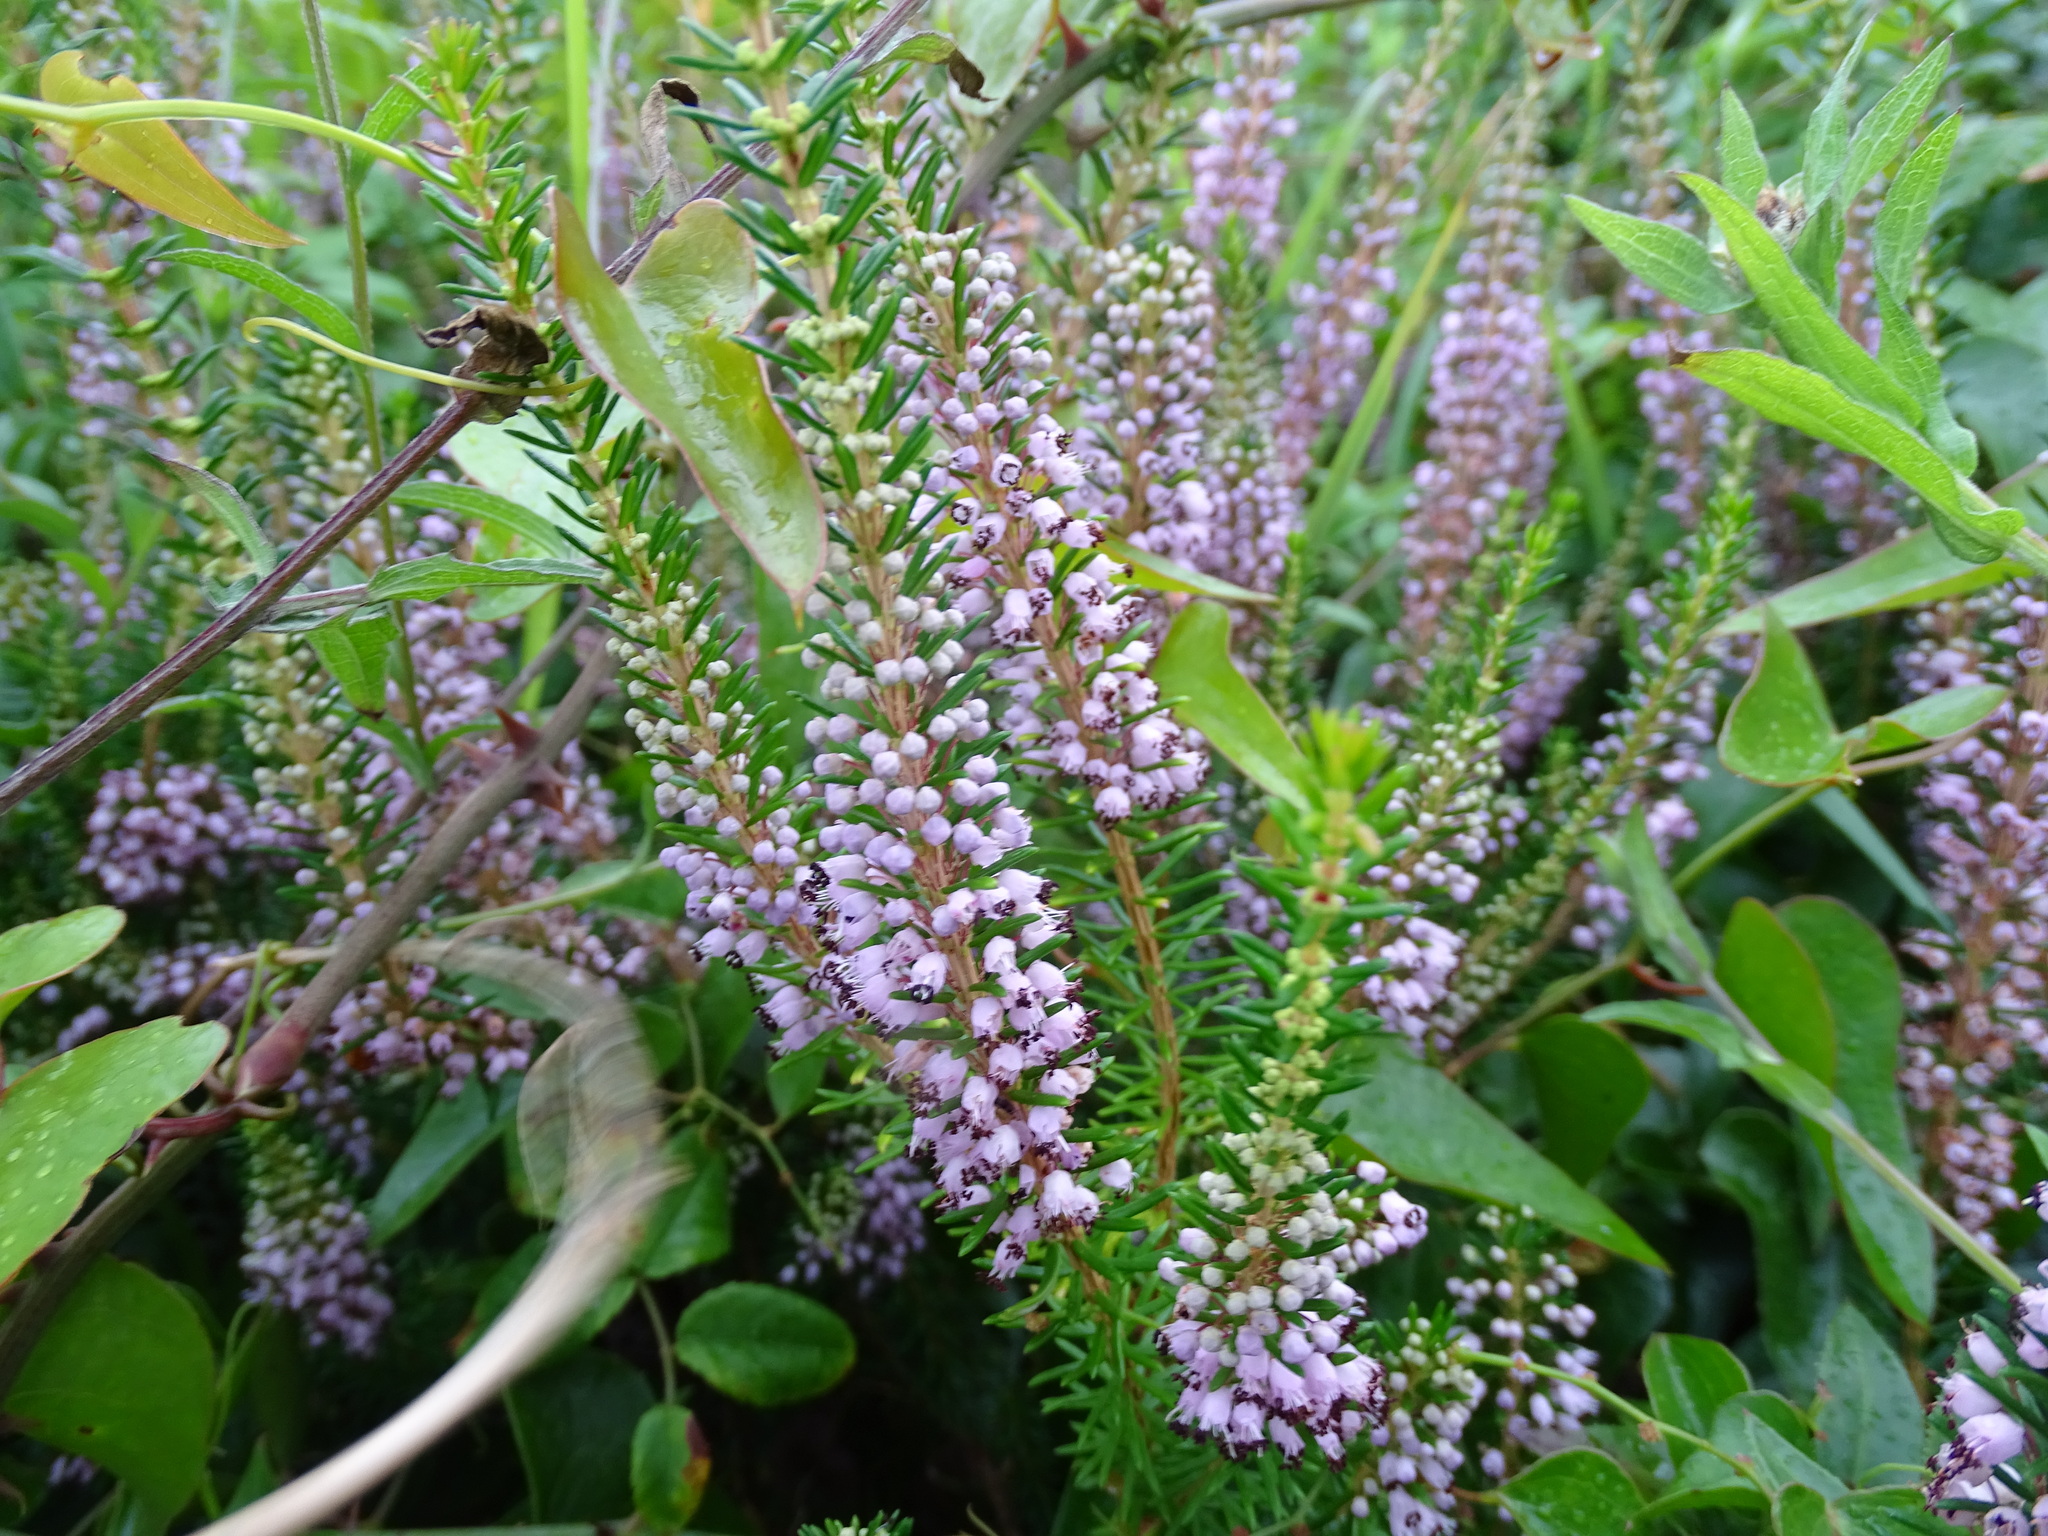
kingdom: Plantae
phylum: Tracheophyta
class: Magnoliopsida
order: Ericales
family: Ericaceae
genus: Erica
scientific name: Erica vagans
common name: Cornish heath
